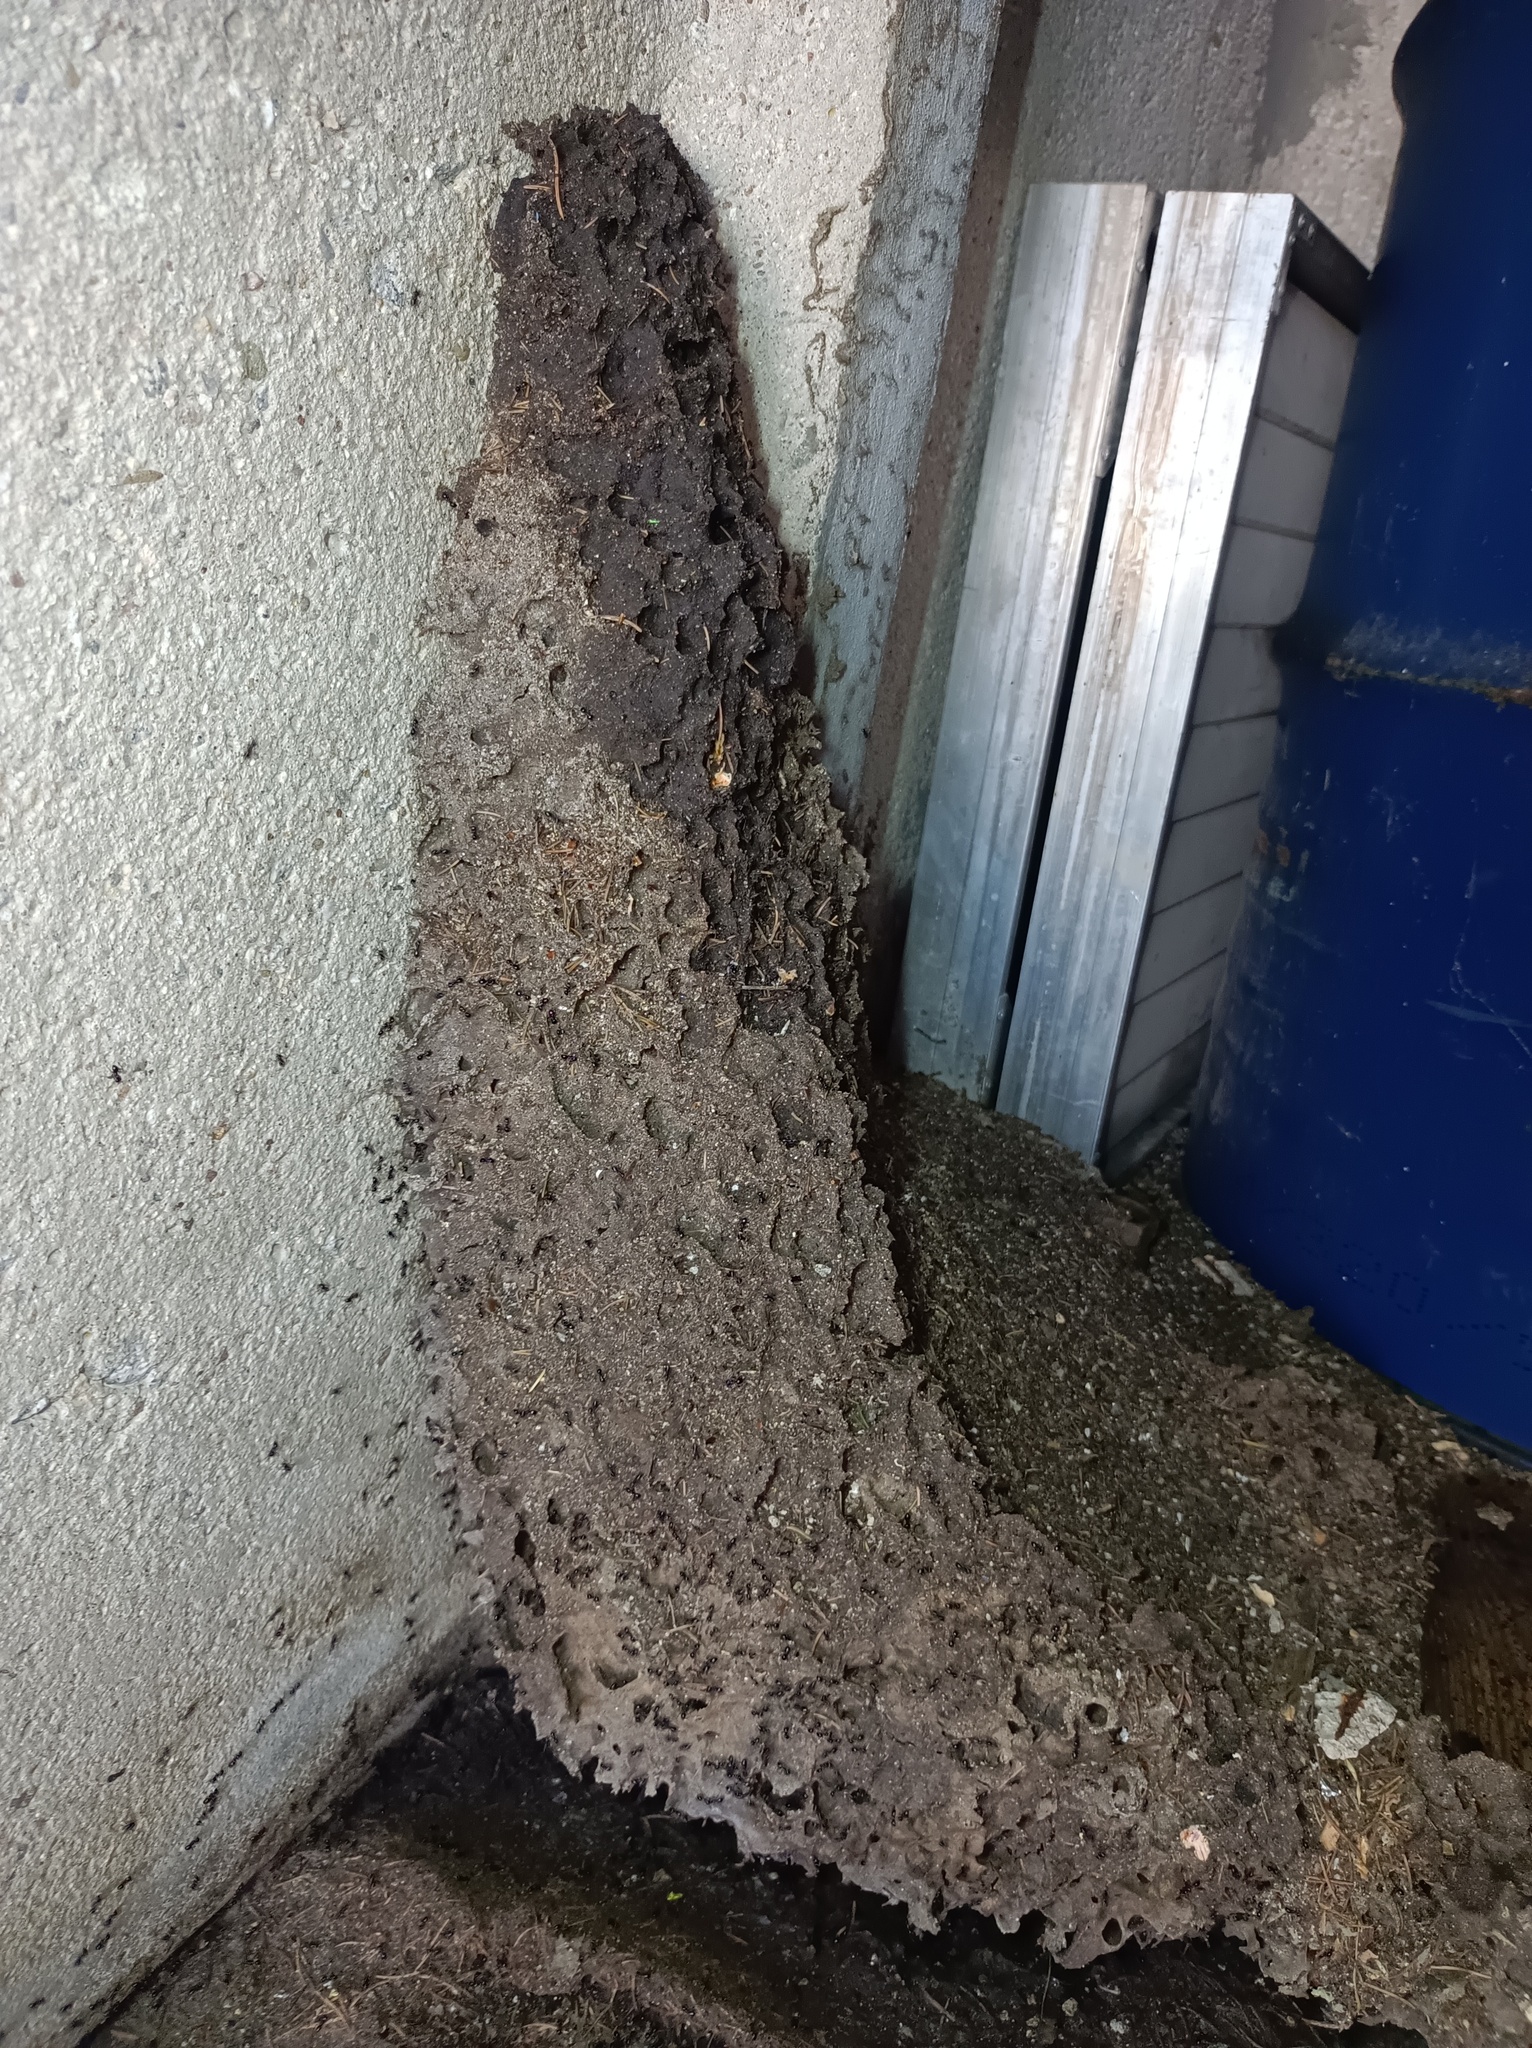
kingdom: Animalia
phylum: Arthropoda
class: Insecta
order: Hymenoptera
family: Formicidae
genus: Lasius
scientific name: Lasius fuliginosus
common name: Jet ant
